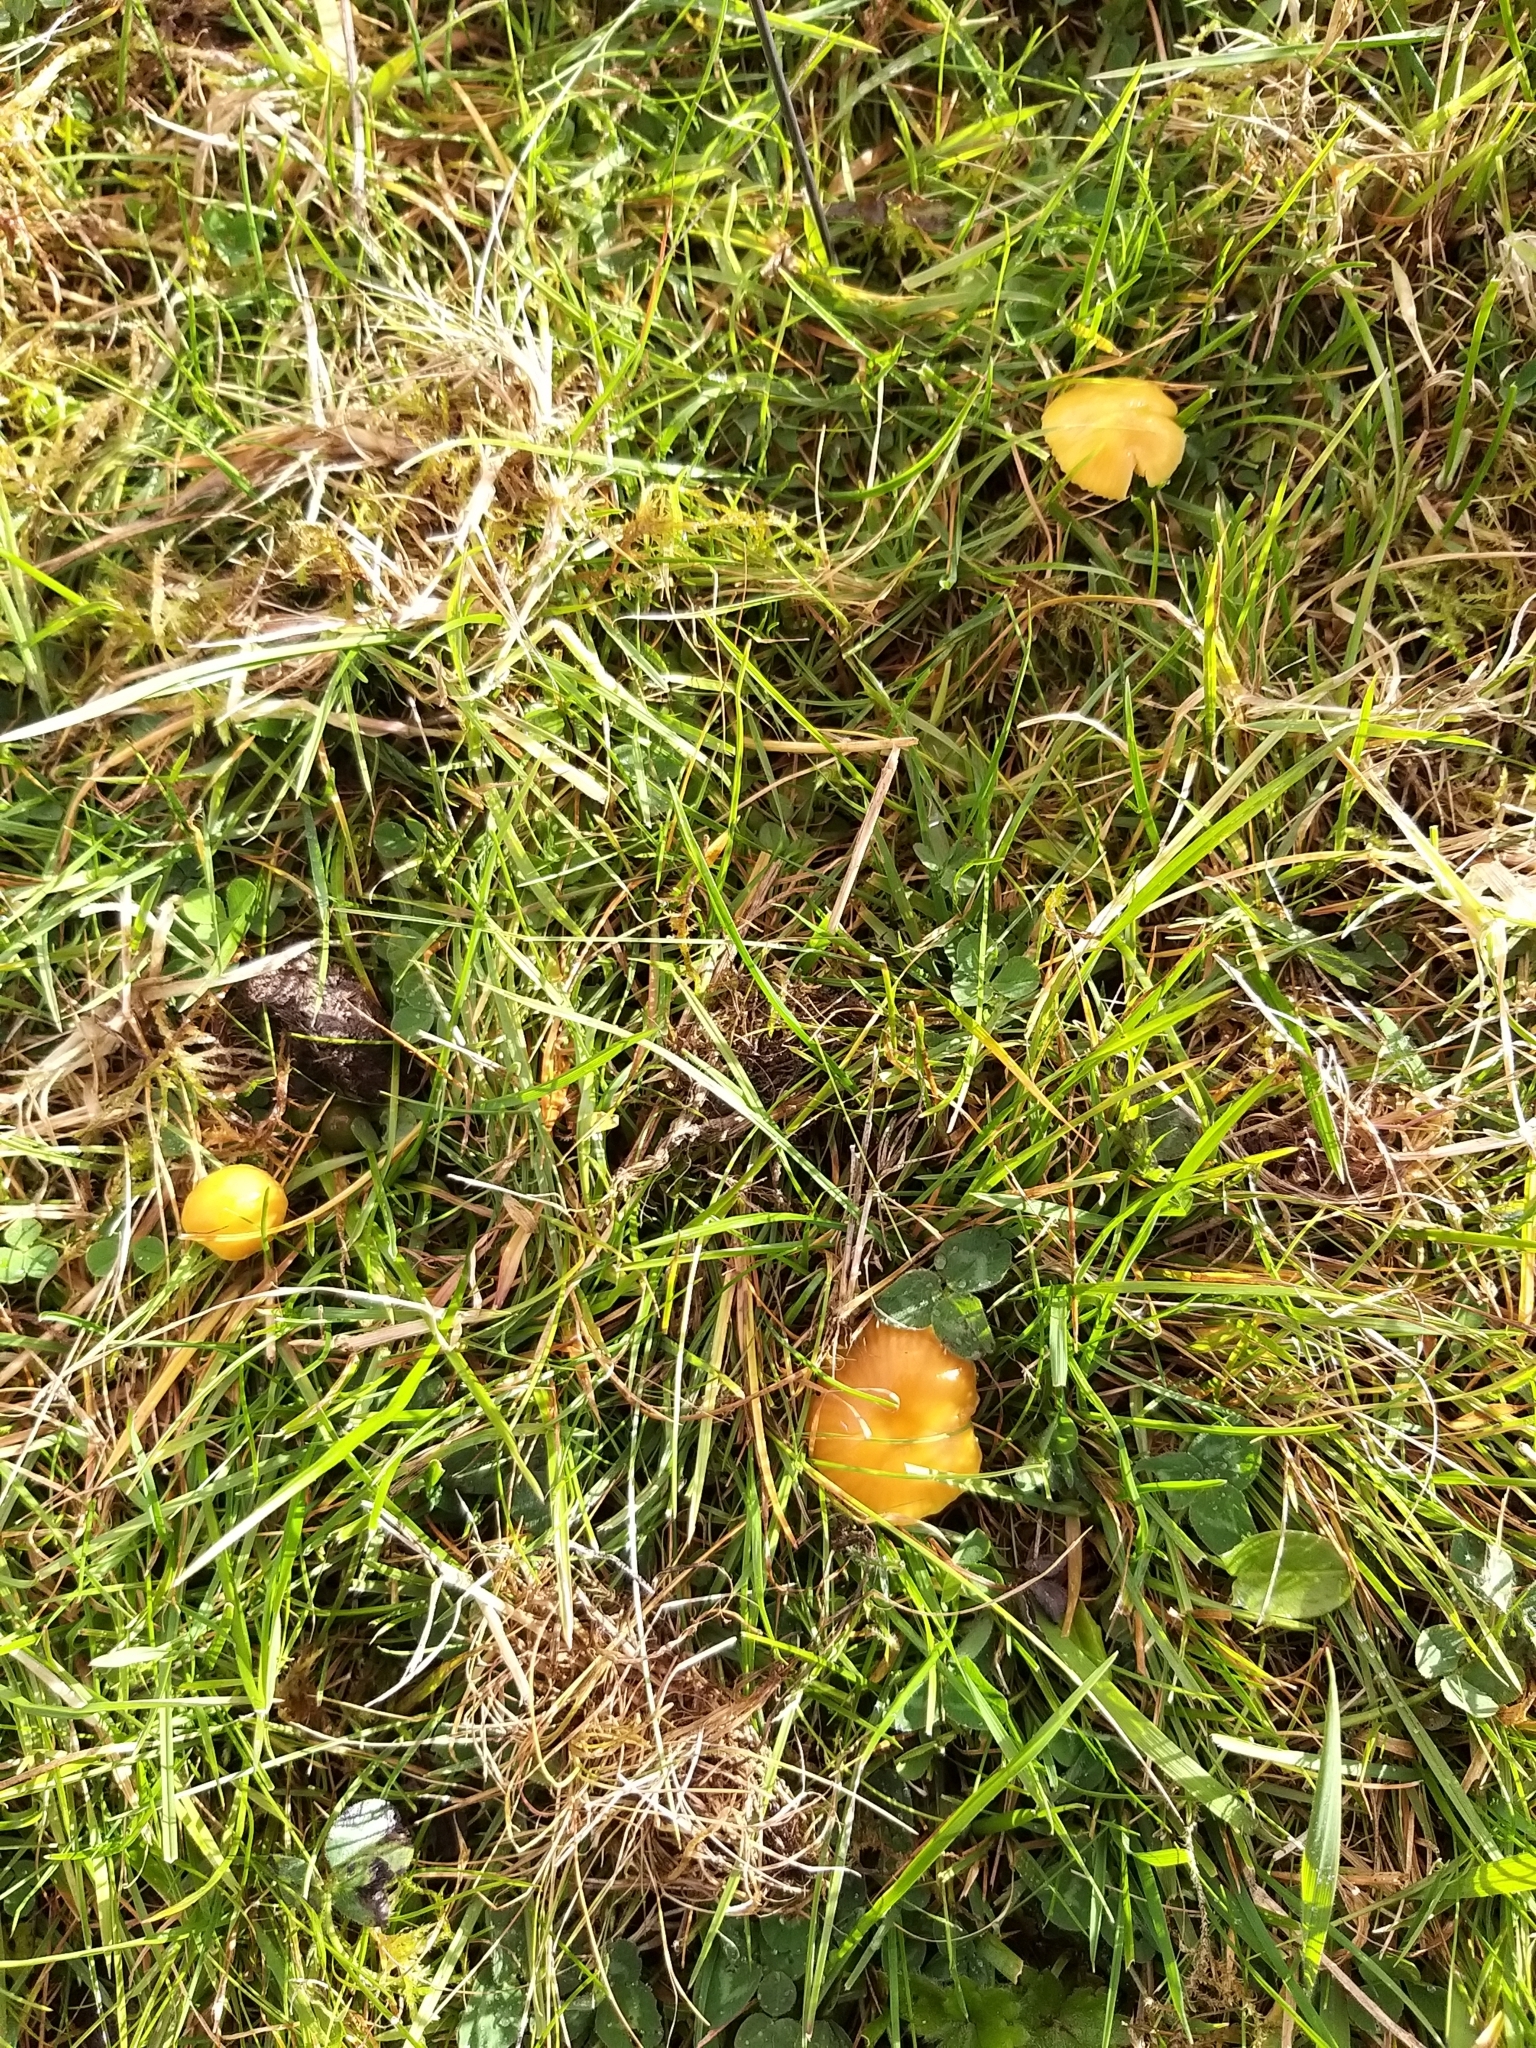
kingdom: Fungi
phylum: Basidiomycota
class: Agaricomycetes
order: Agaricales
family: Hygrophoraceae
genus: Gliophorus
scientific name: Gliophorus psittacinus
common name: Parrot wax-cap
